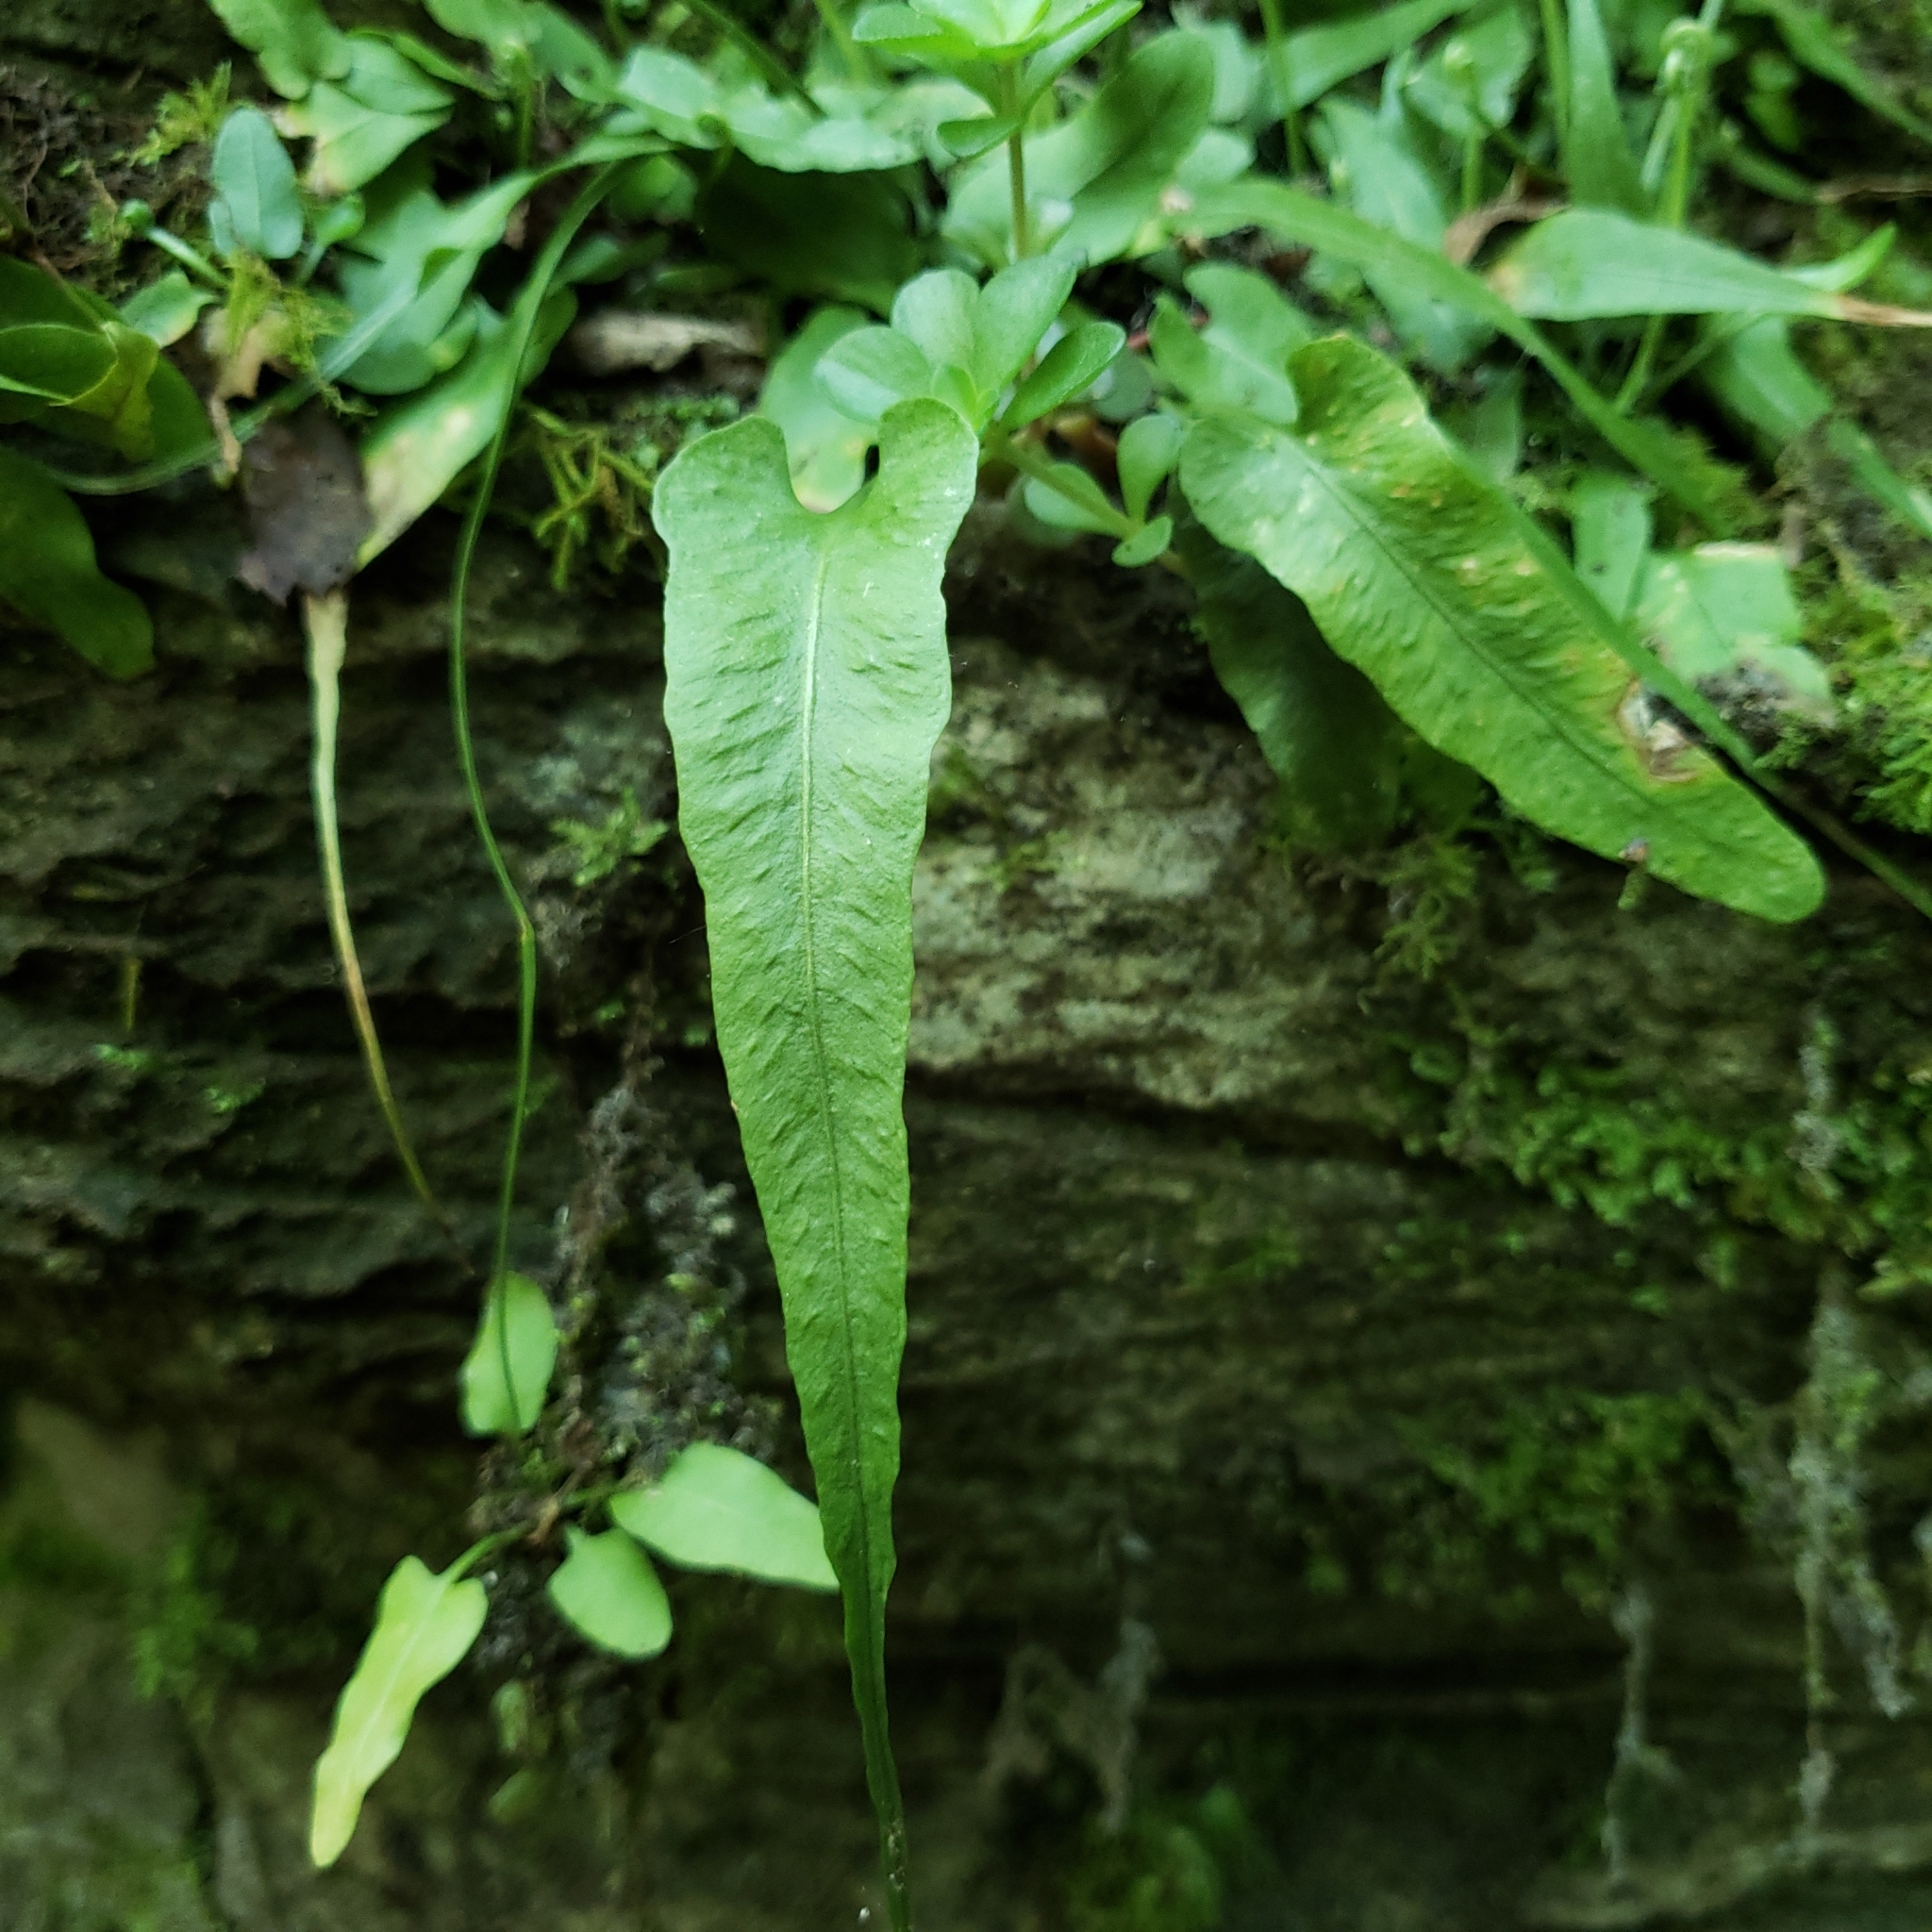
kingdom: Plantae
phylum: Tracheophyta
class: Polypodiopsida
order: Polypodiales
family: Aspleniaceae
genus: Asplenium
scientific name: Asplenium rhizophyllum
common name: Walking fern
